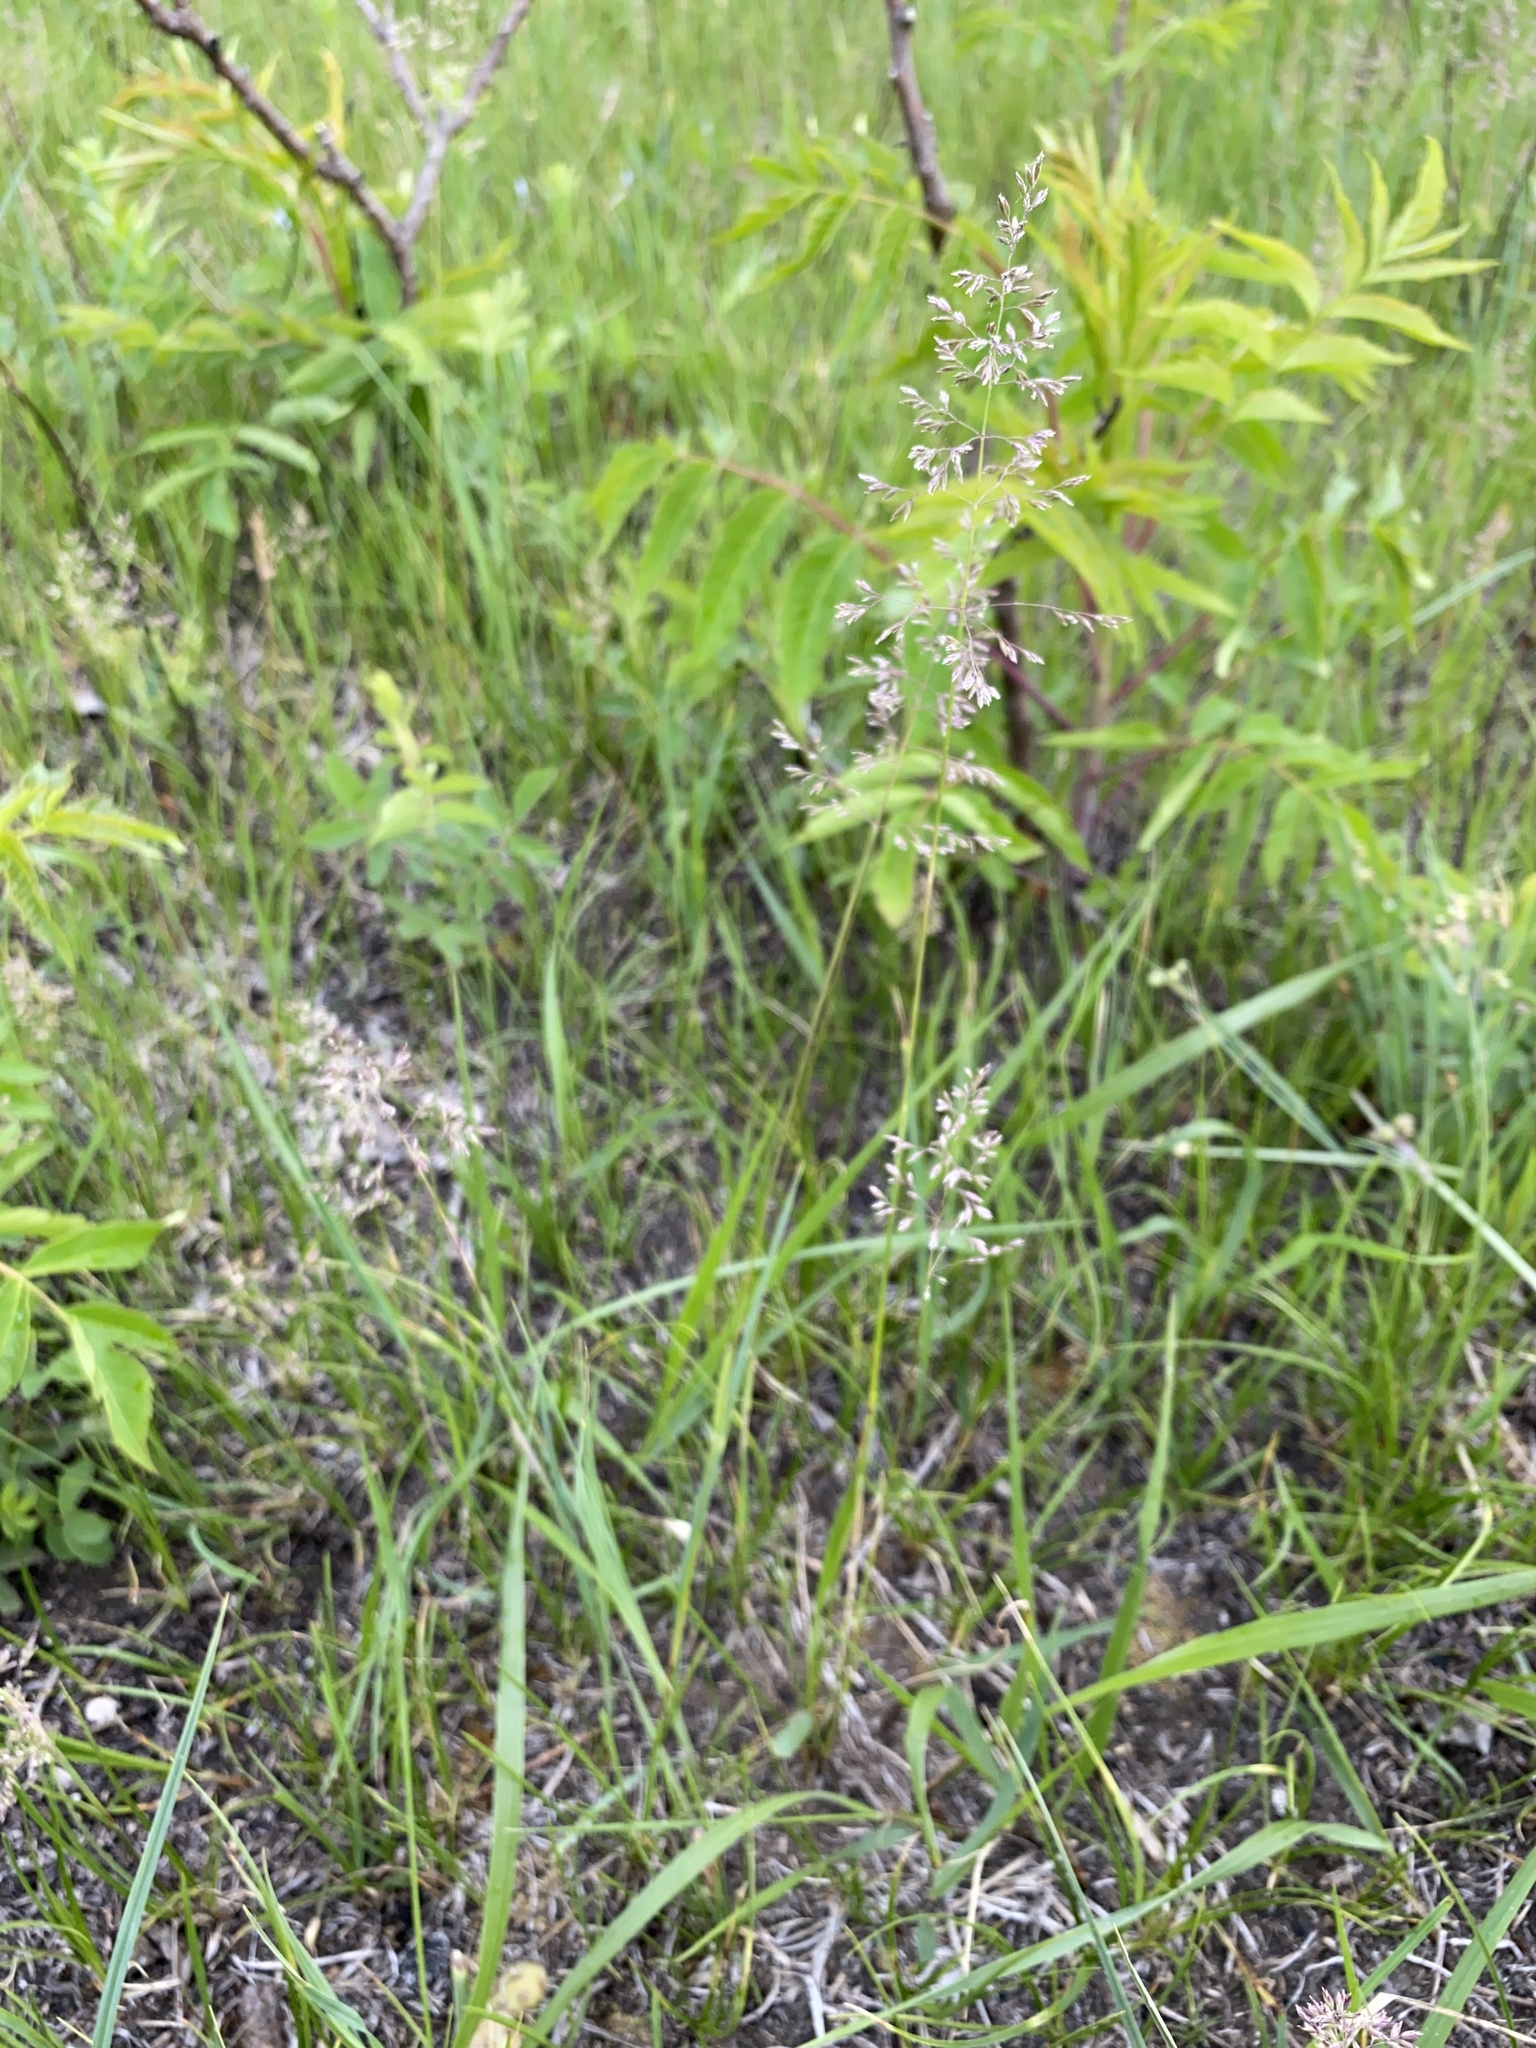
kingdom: Plantae
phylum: Tracheophyta
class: Liliopsida
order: Poales
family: Poaceae
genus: Poa
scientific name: Poa pratensis
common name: Kentucky bluegrass
